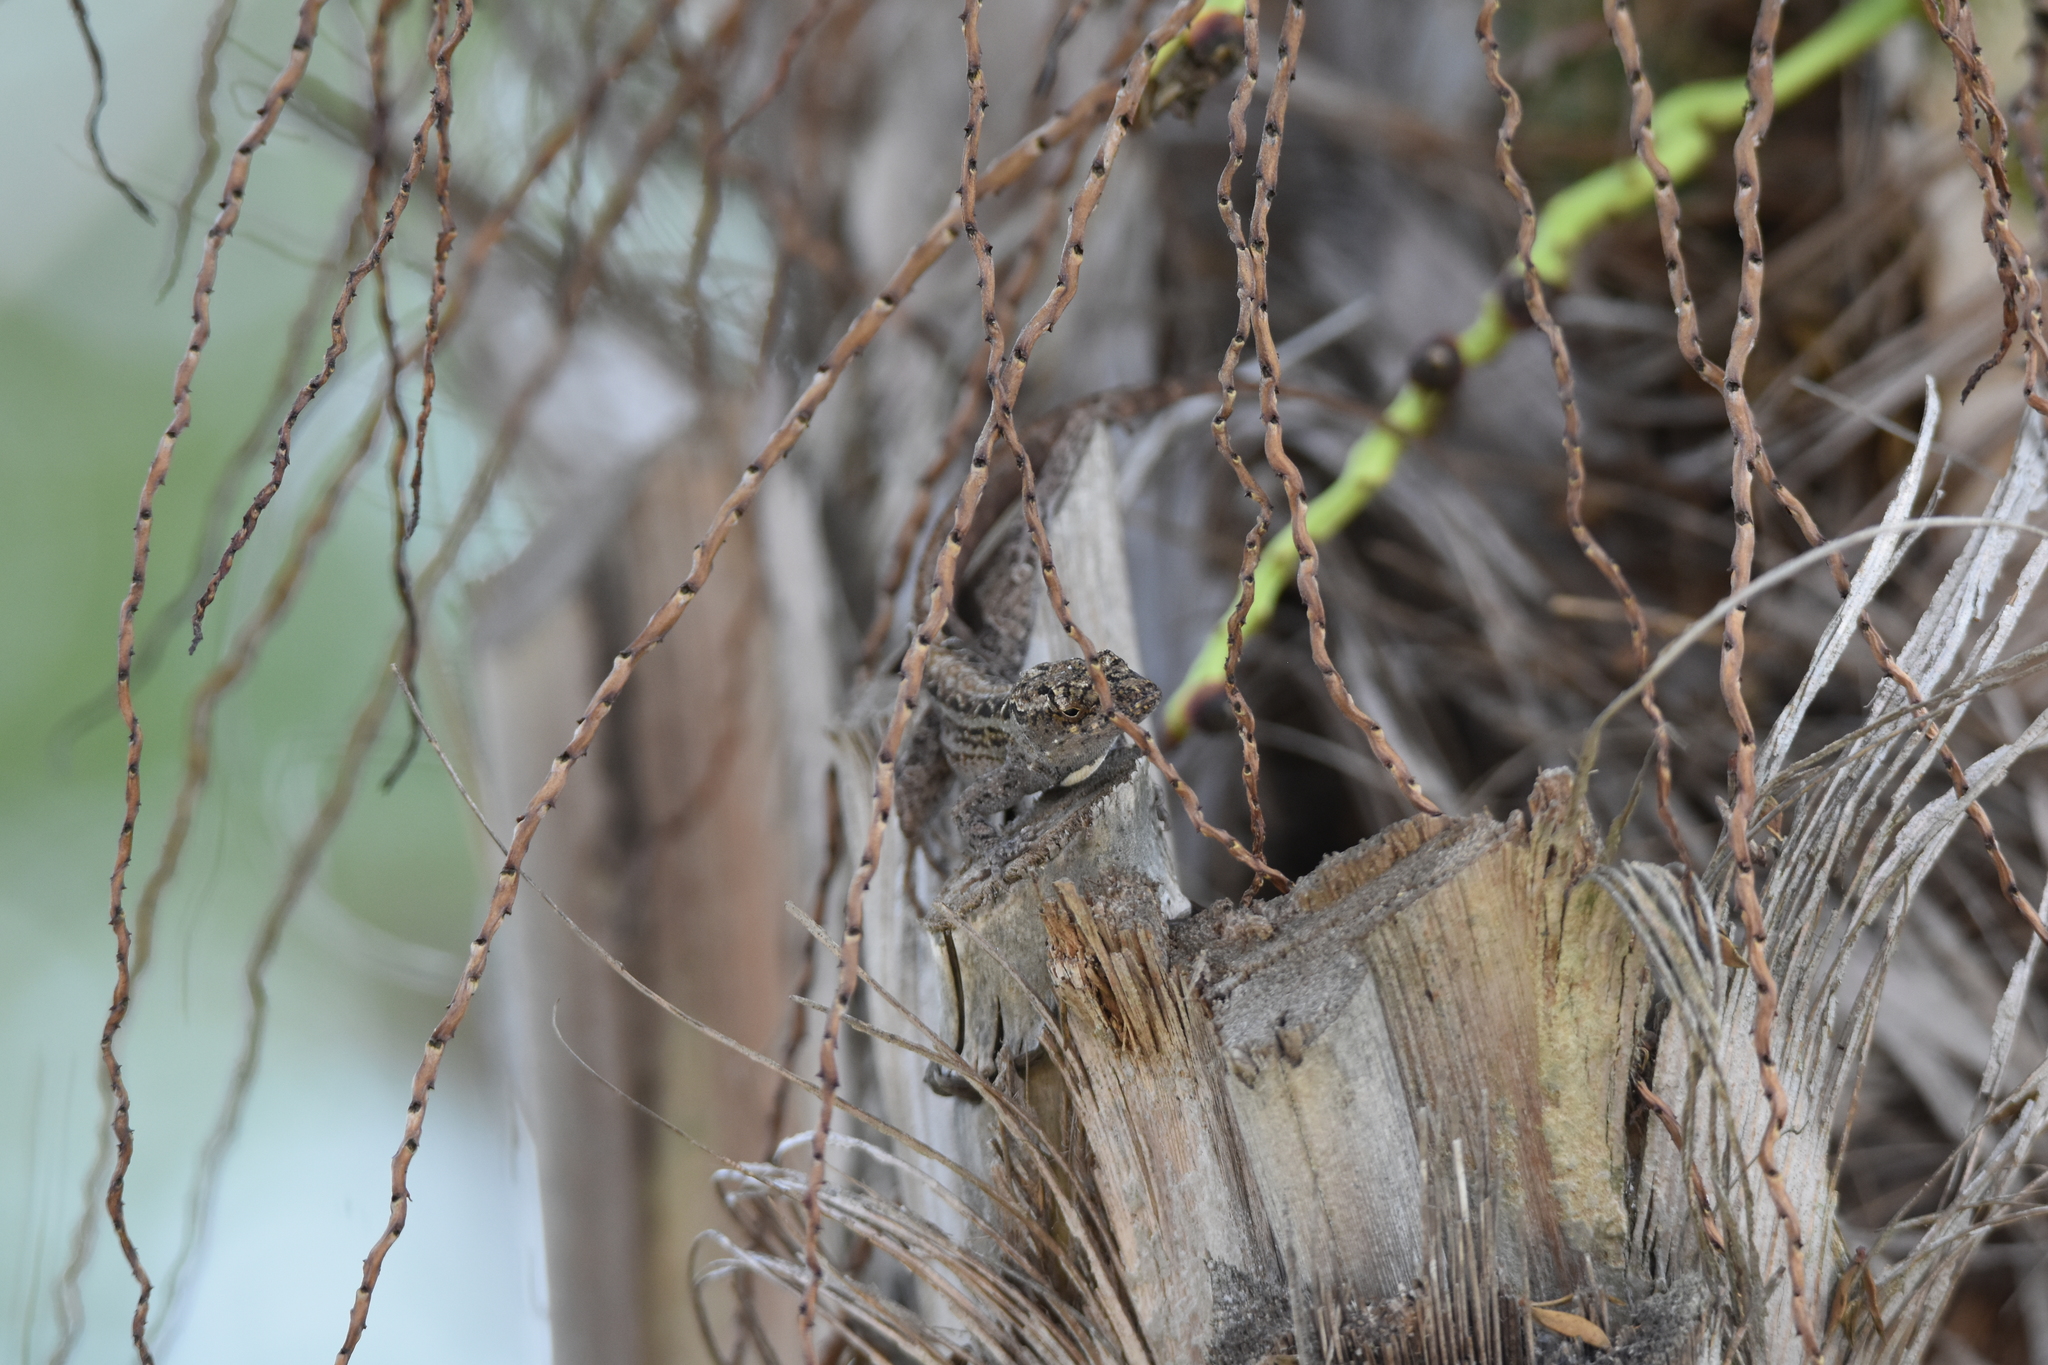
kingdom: Animalia
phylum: Chordata
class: Squamata
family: Dactyloidae
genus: Anolis
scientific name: Anolis sagrei
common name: Brown anole
